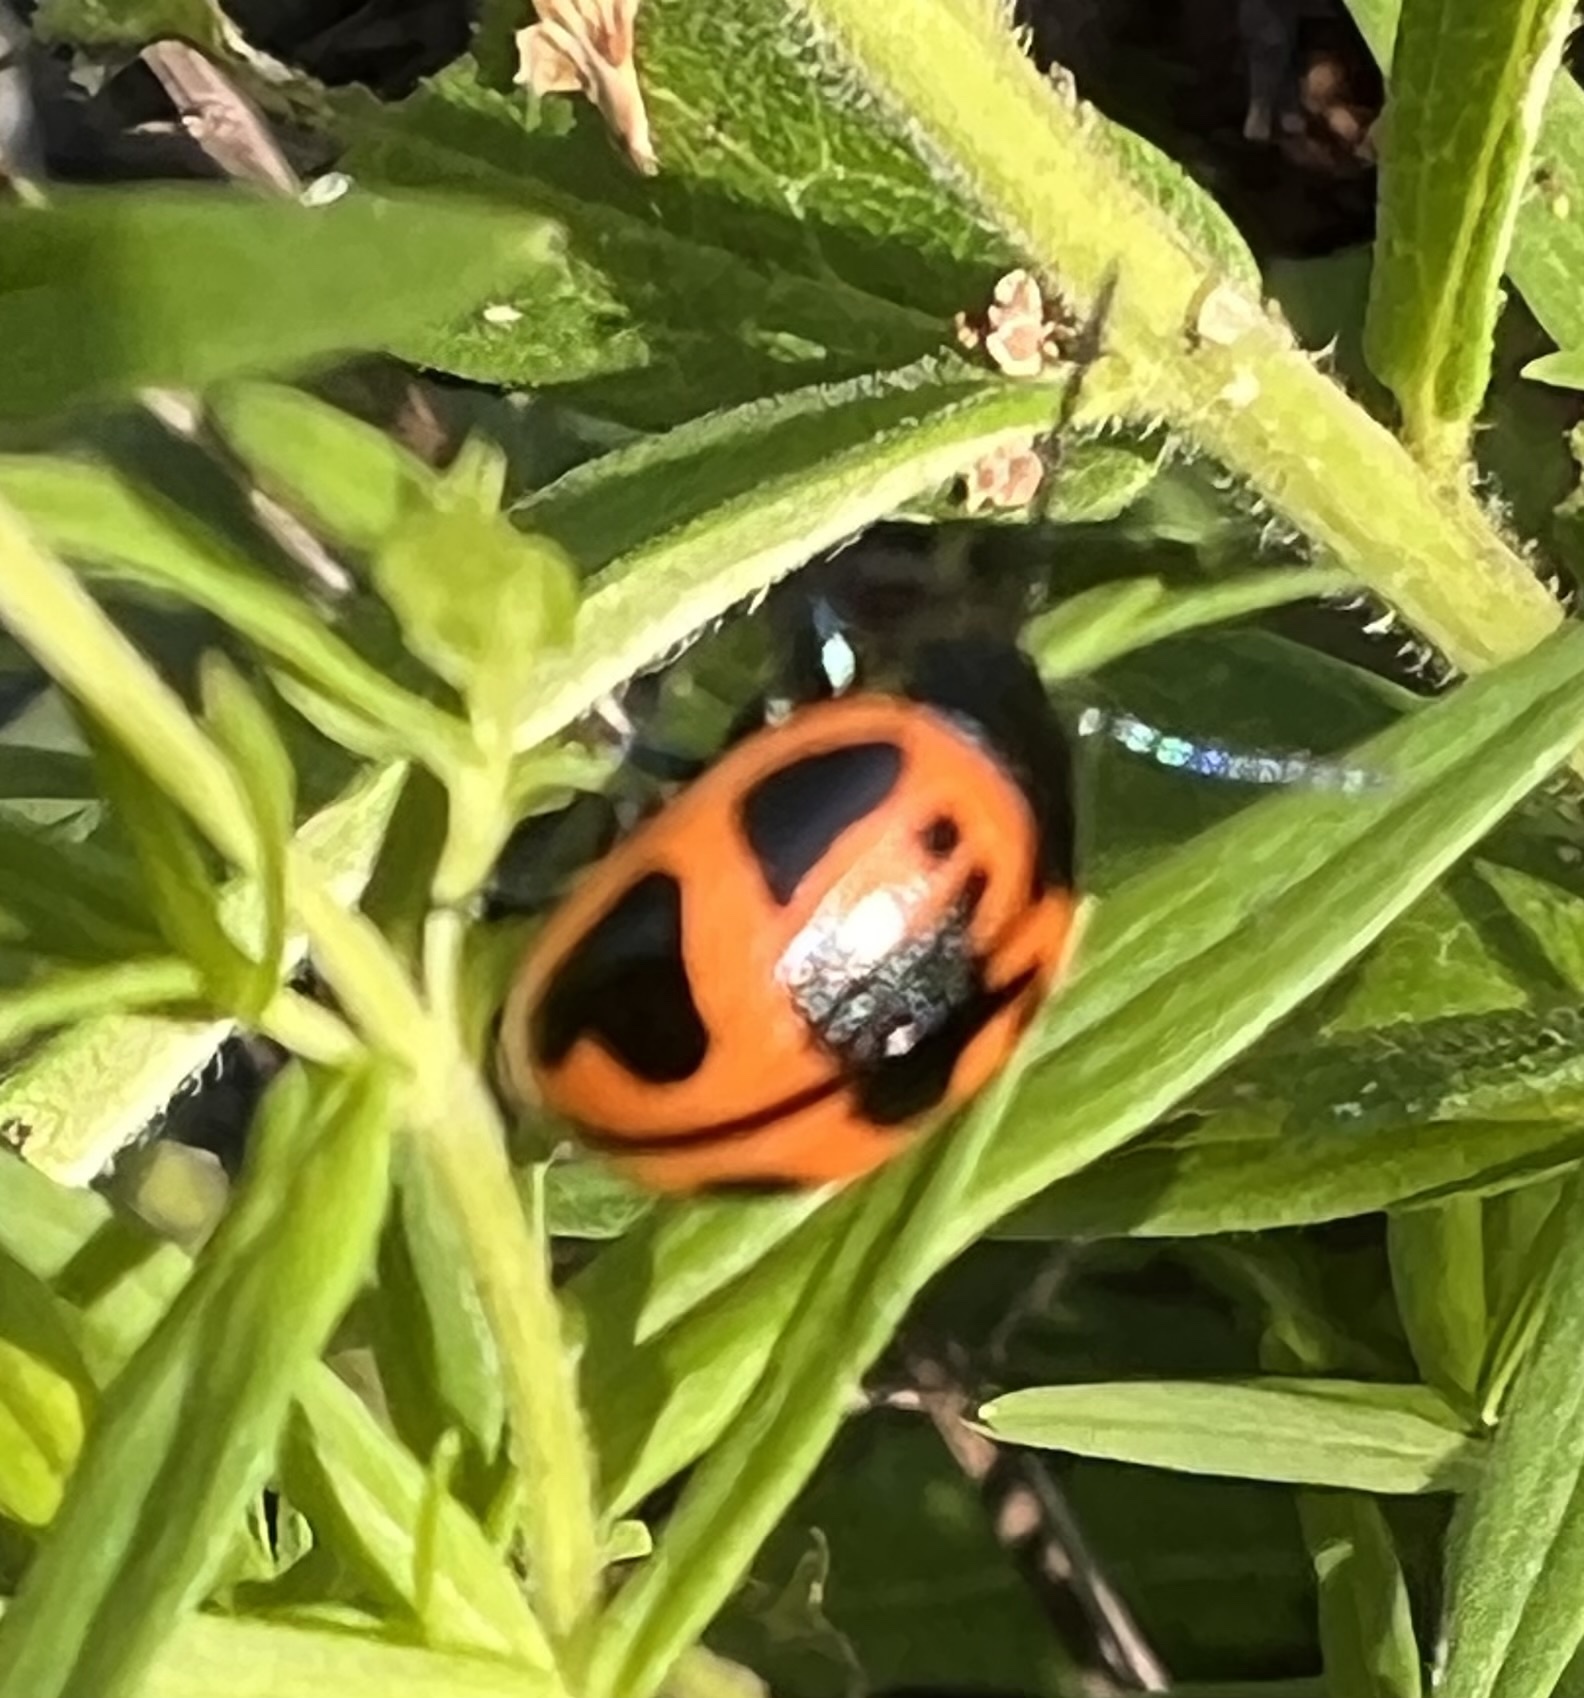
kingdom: Animalia
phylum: Arthropoda
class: Insecta
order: Coleoptera
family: Chrysomelidae
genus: Labidomera
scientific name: Labidomera clivicollis
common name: Swamp milkweed leaf beetle
